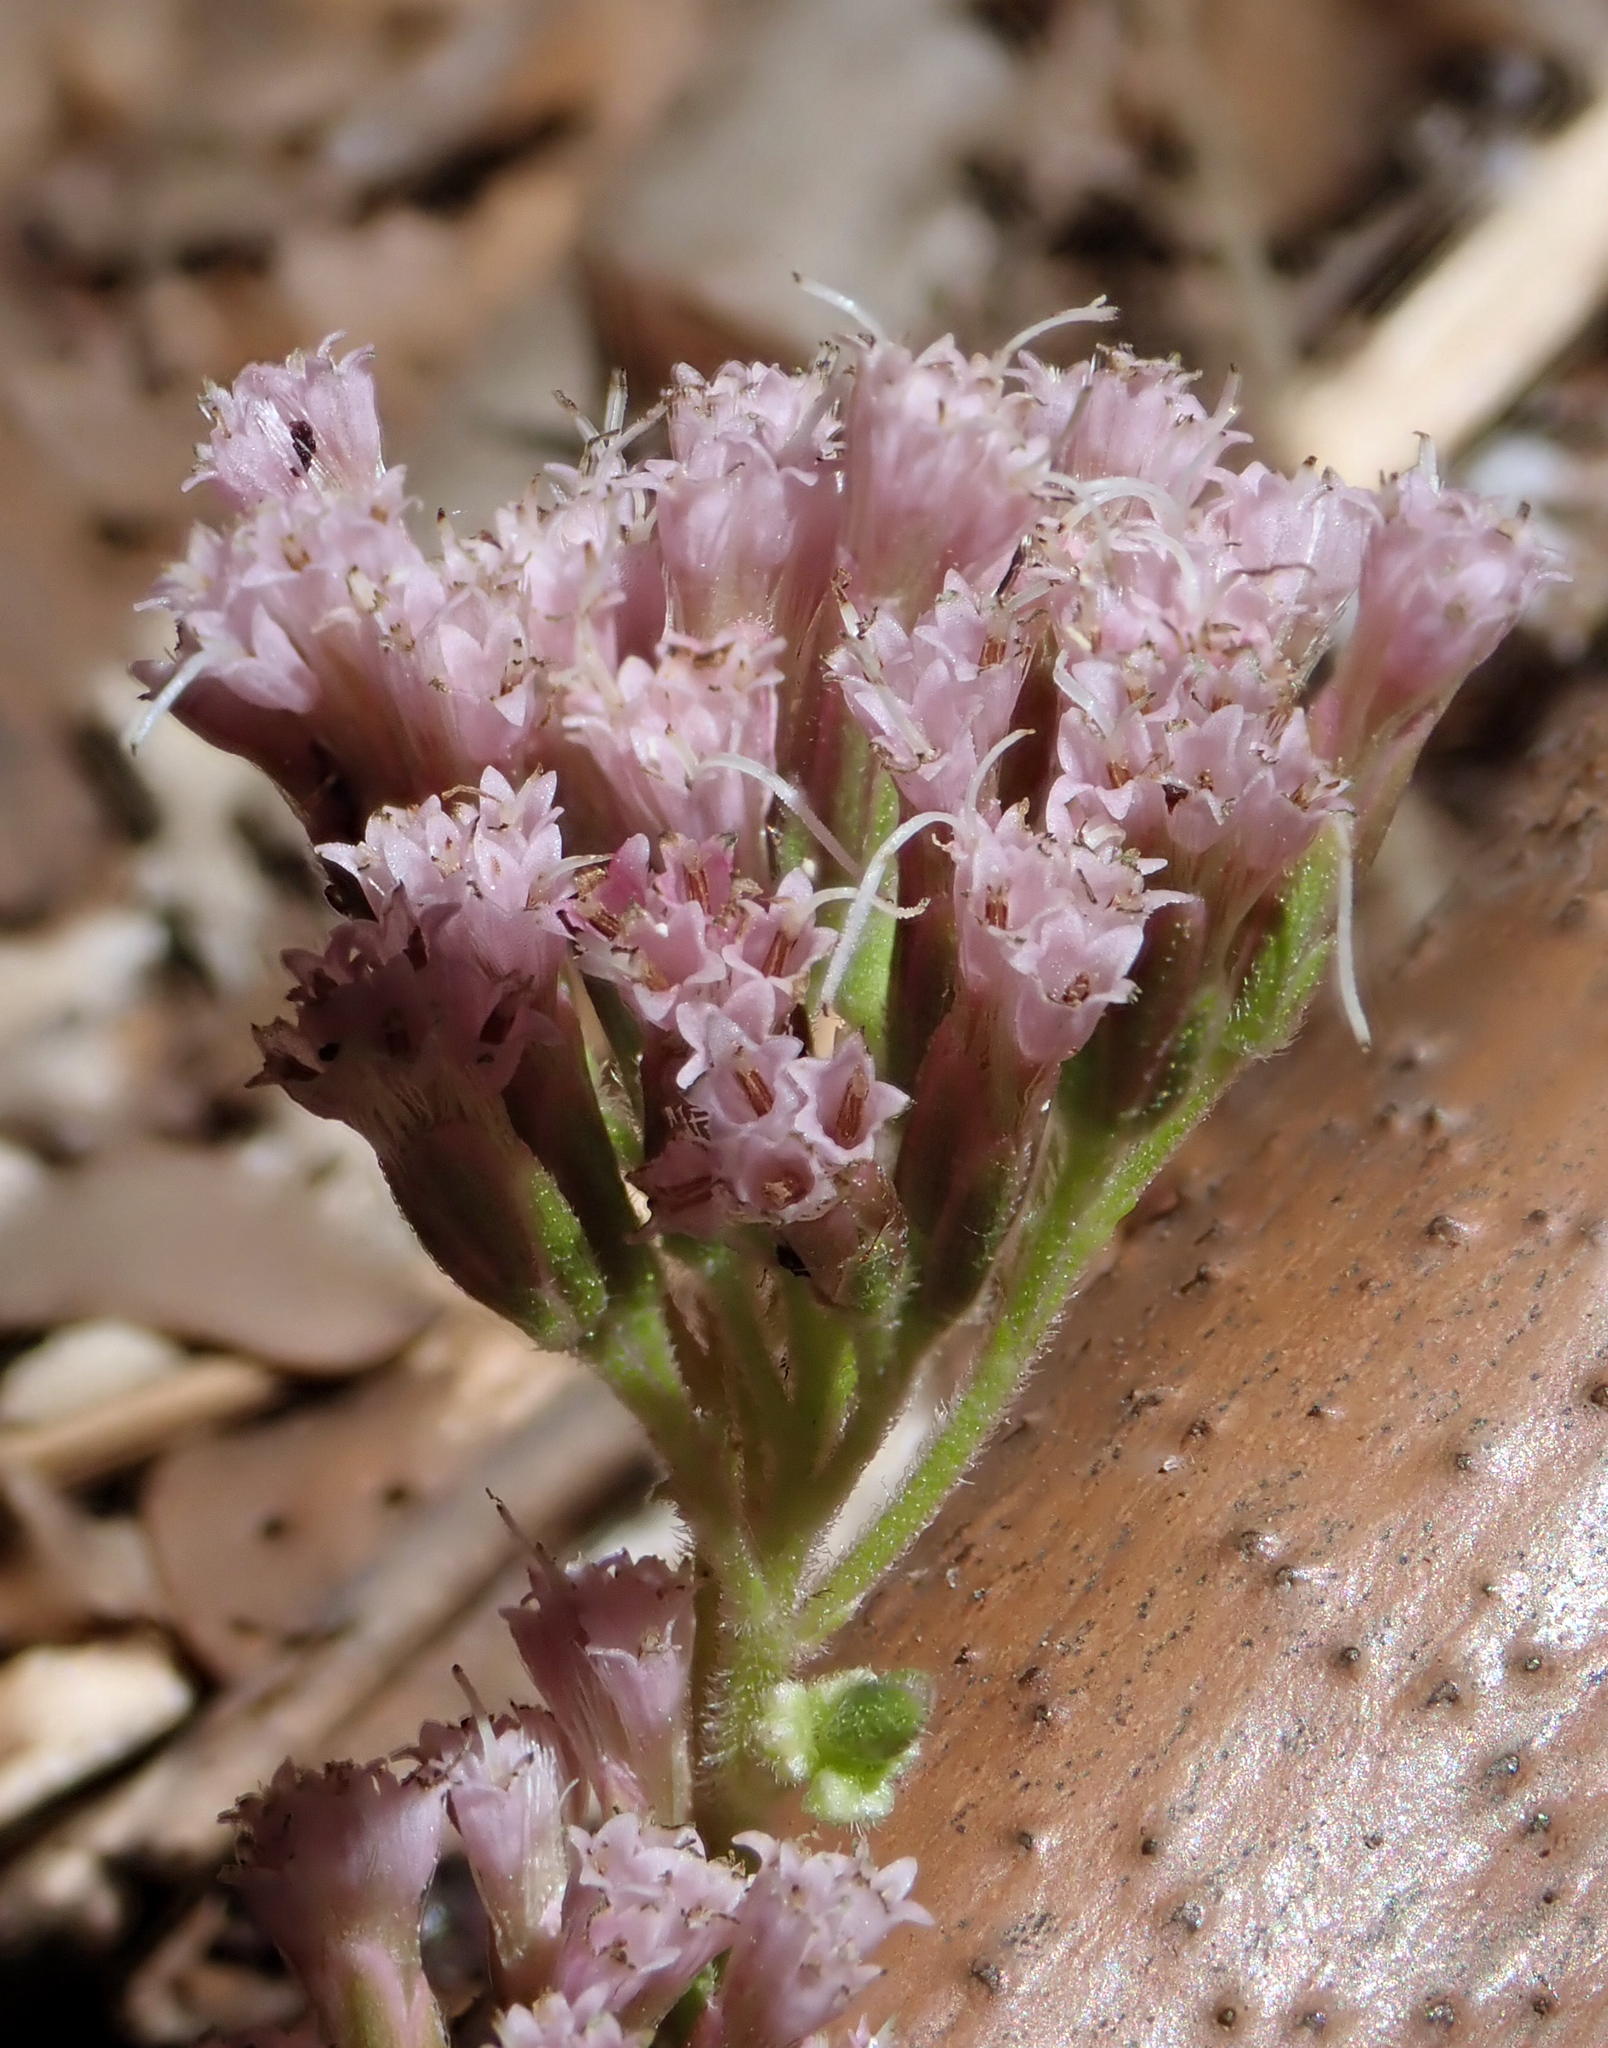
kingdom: Plantae
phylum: Tracheophyta
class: Magnoliopsida
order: Asterales
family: Asteraceae
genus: Eupatorium
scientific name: Eupatorium cannabinum
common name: Hemp-agrimony
